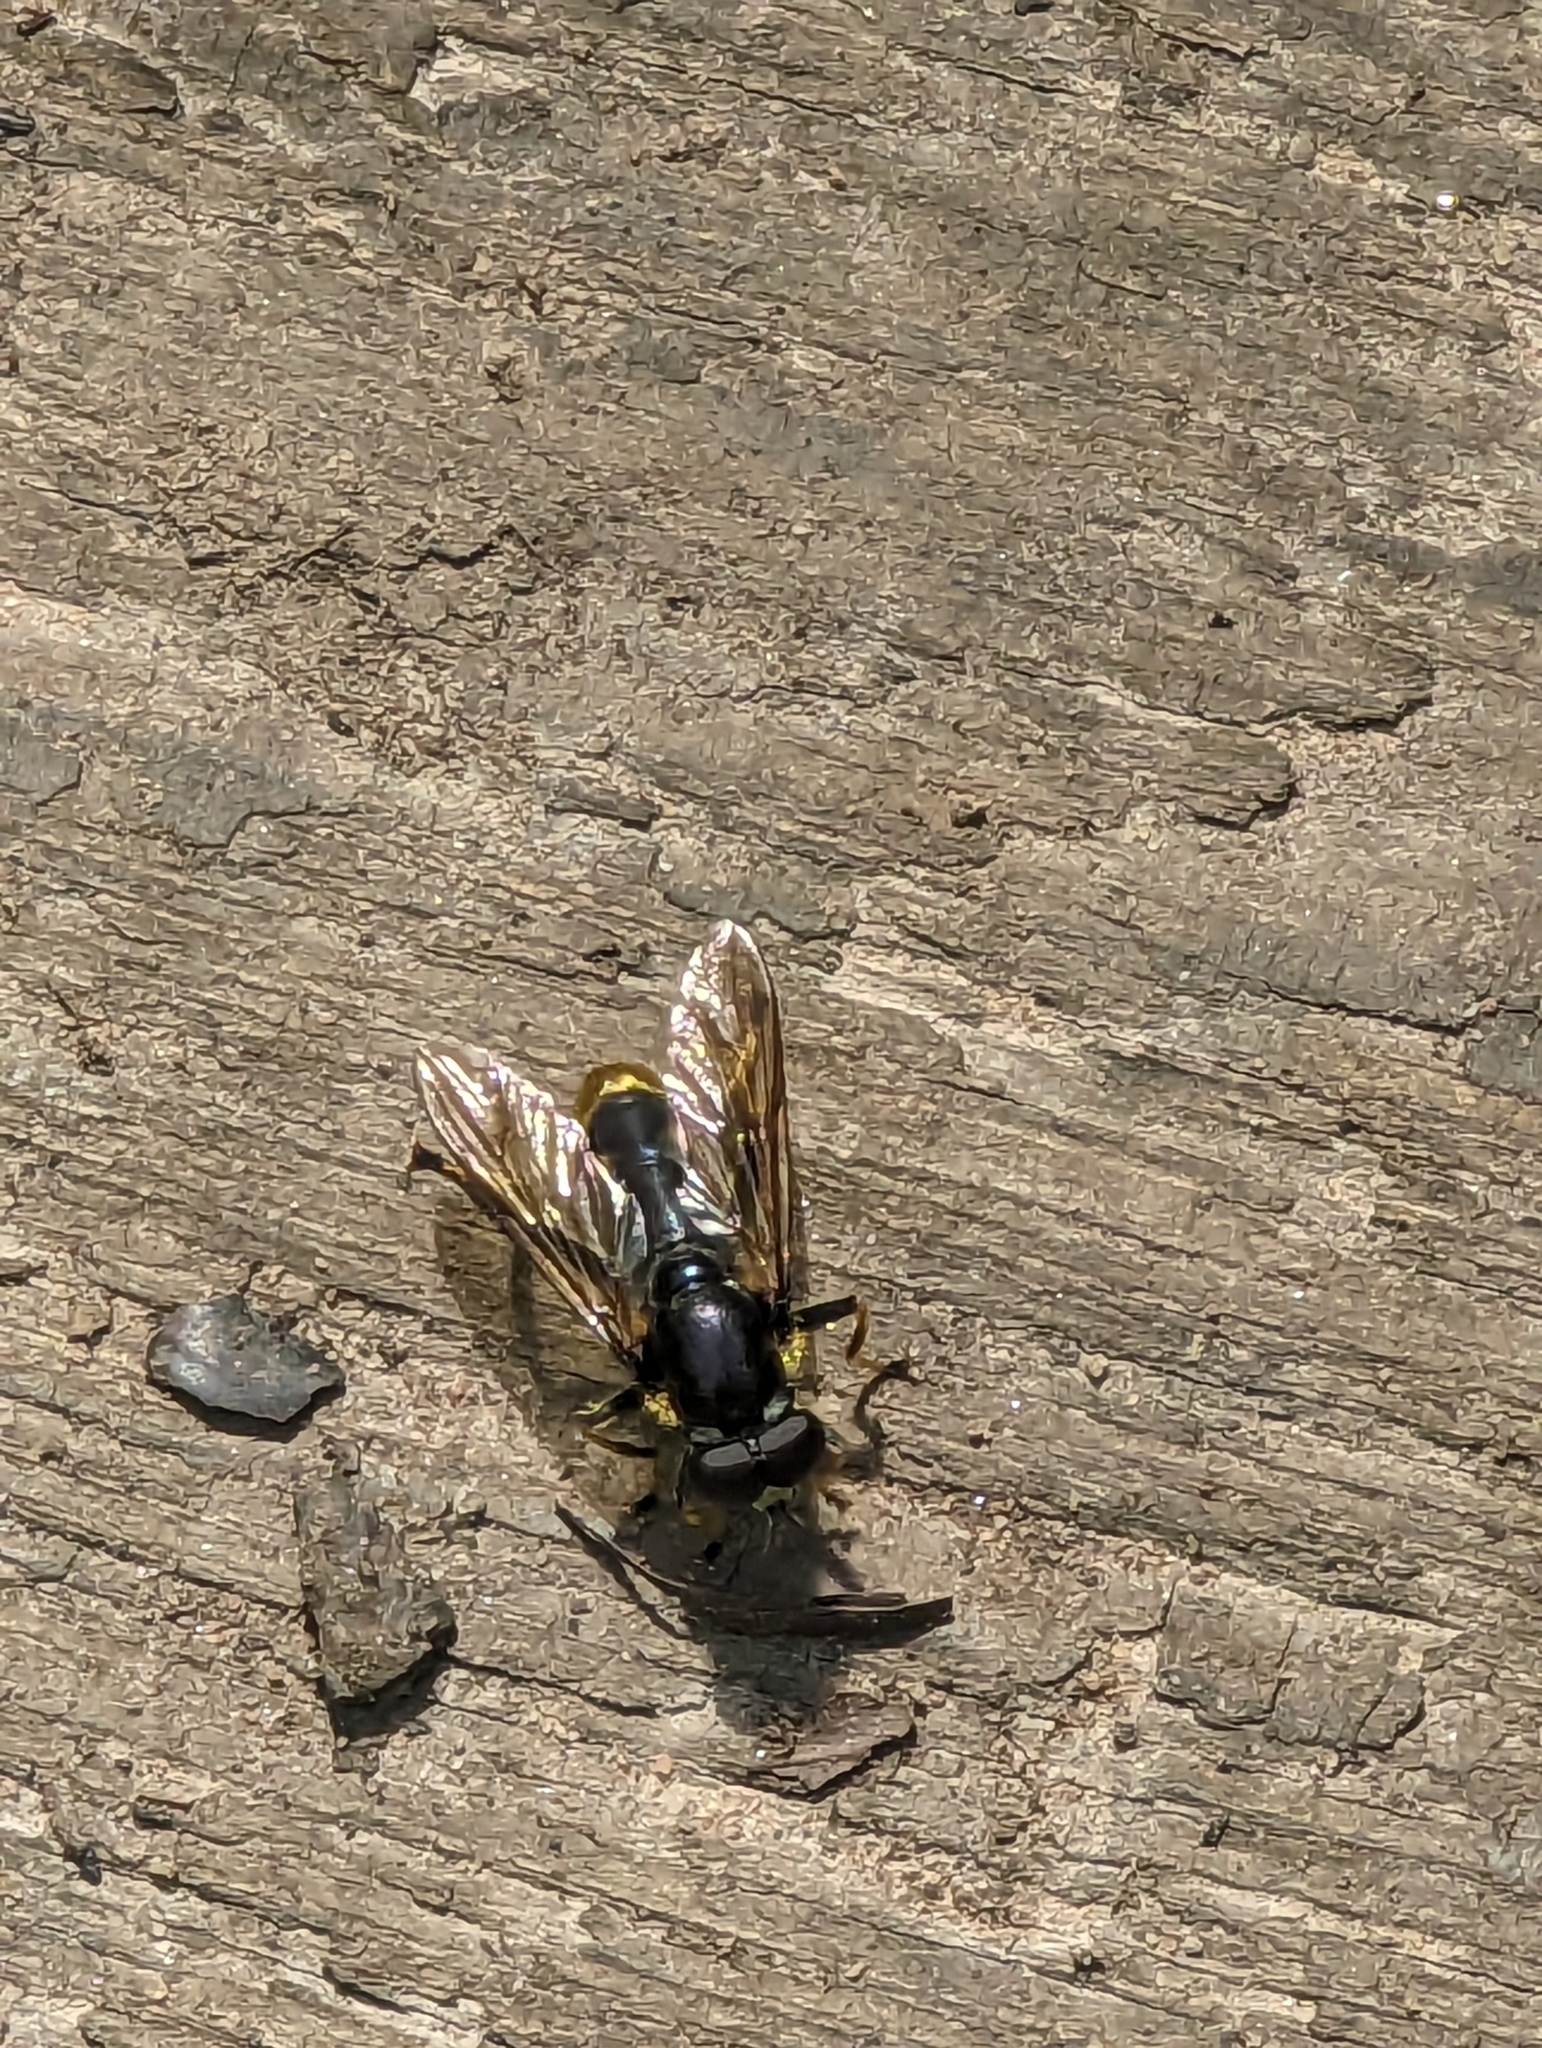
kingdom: Animalia
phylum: Arthropoda
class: Insecta
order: Diptera
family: Syrphidae
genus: Xylota
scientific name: Xylota
